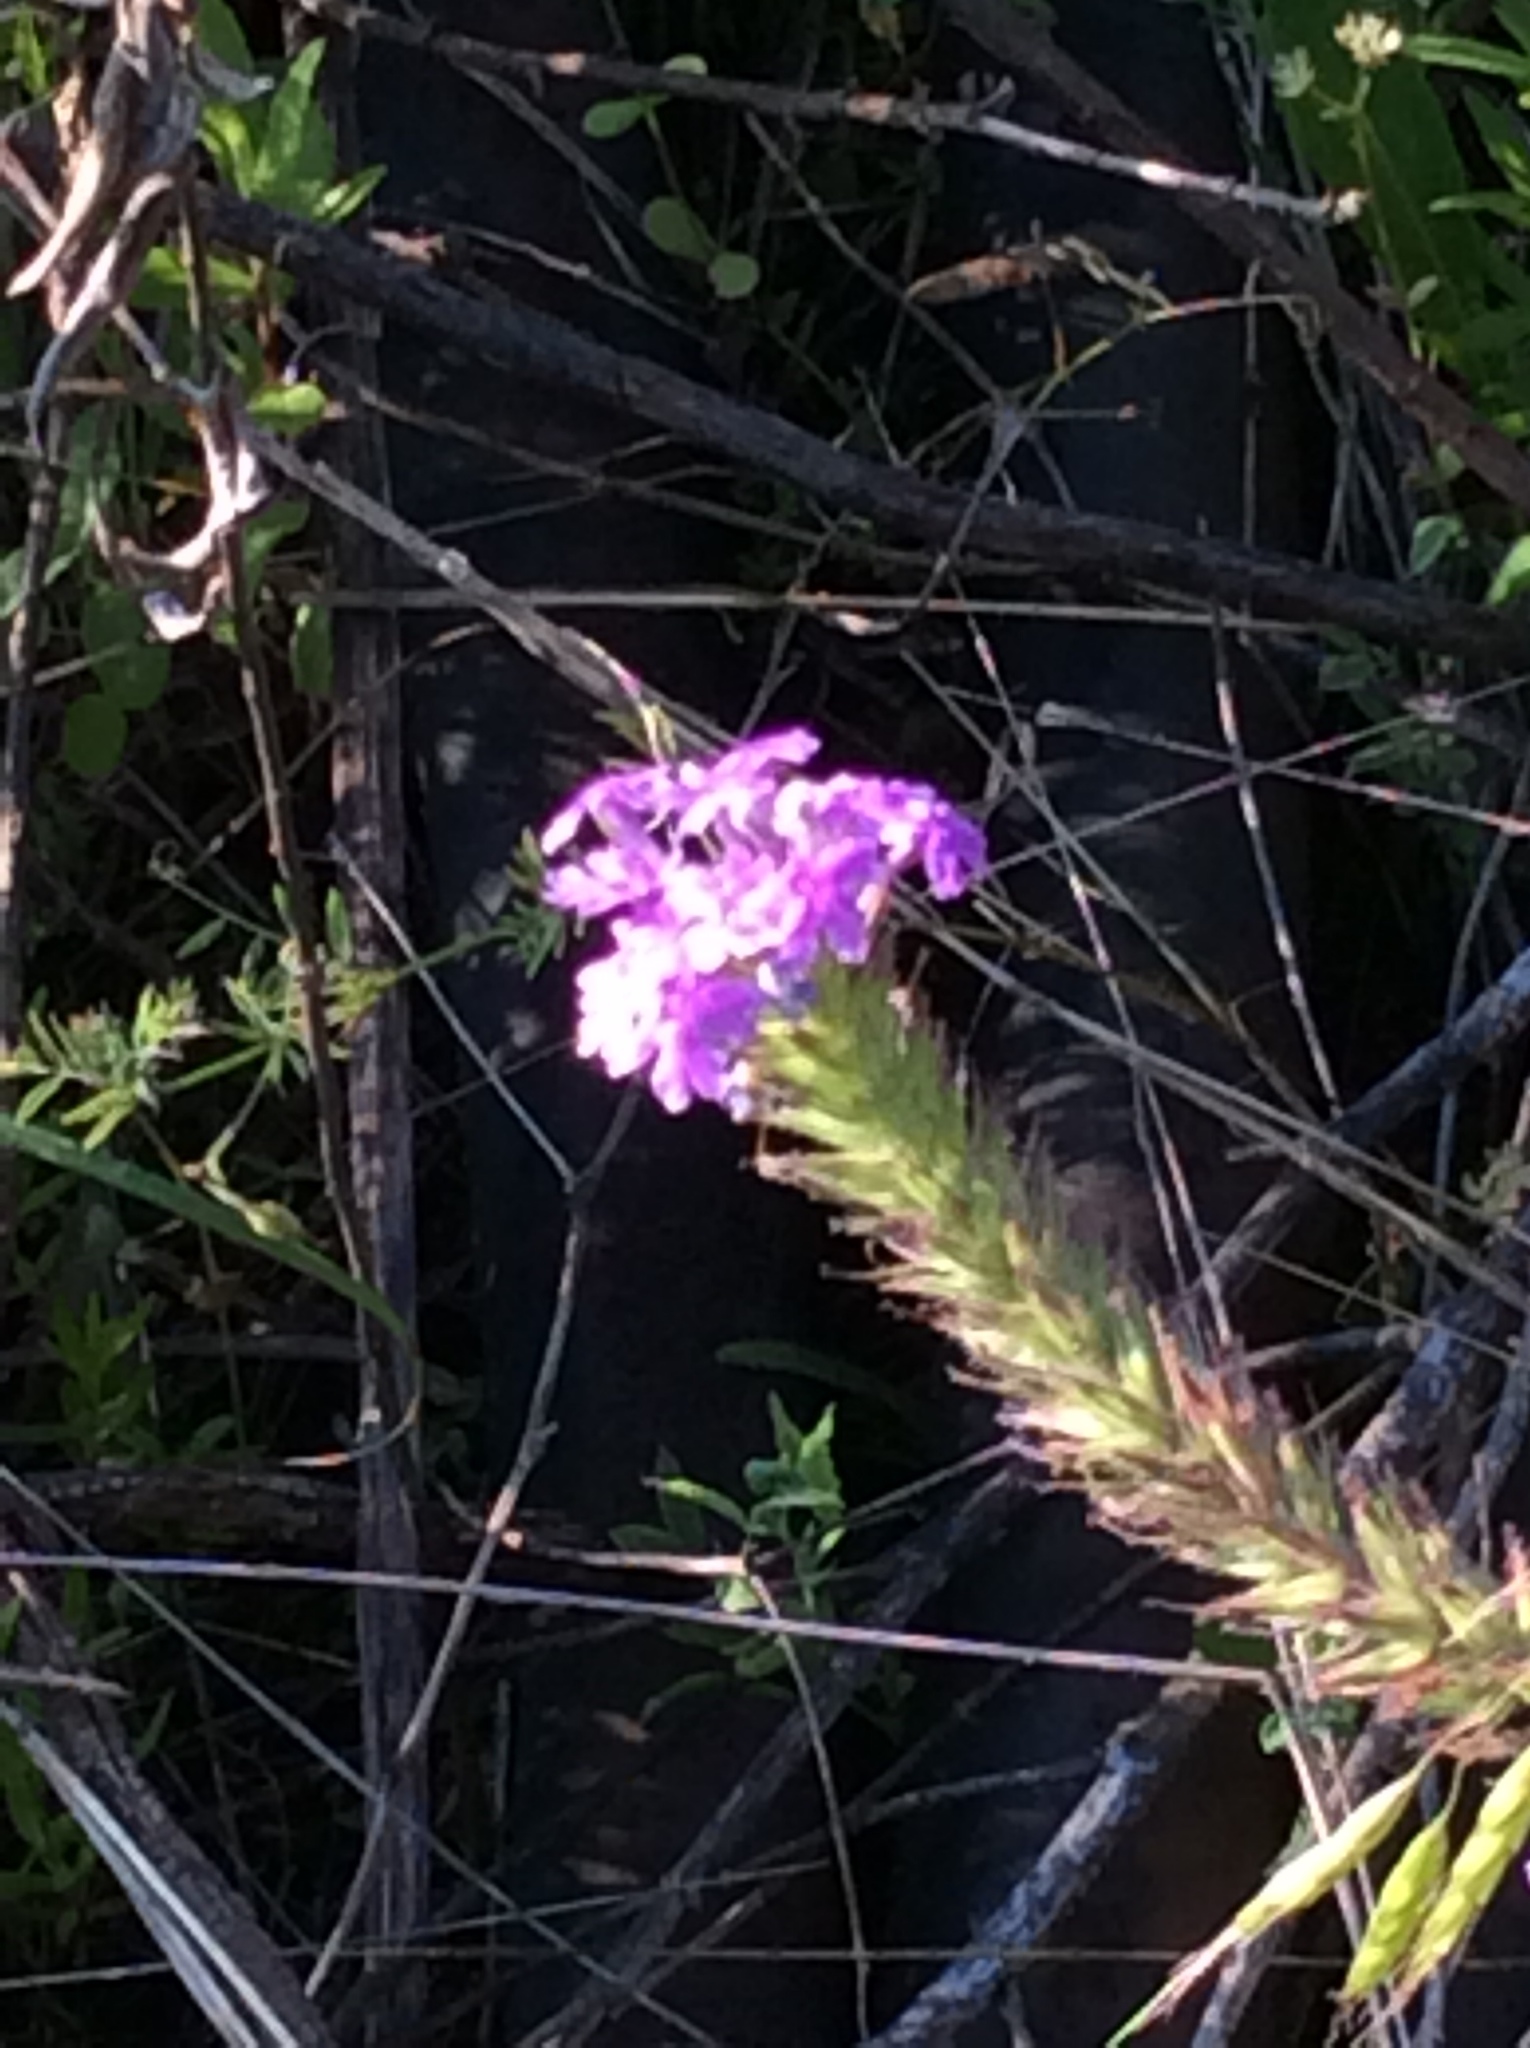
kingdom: Plantae
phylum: Tracheophyta
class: Magnoliopsida
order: Lamiales
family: Verbenaceae
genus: Verbena
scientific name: Verbena bipinnatifida
